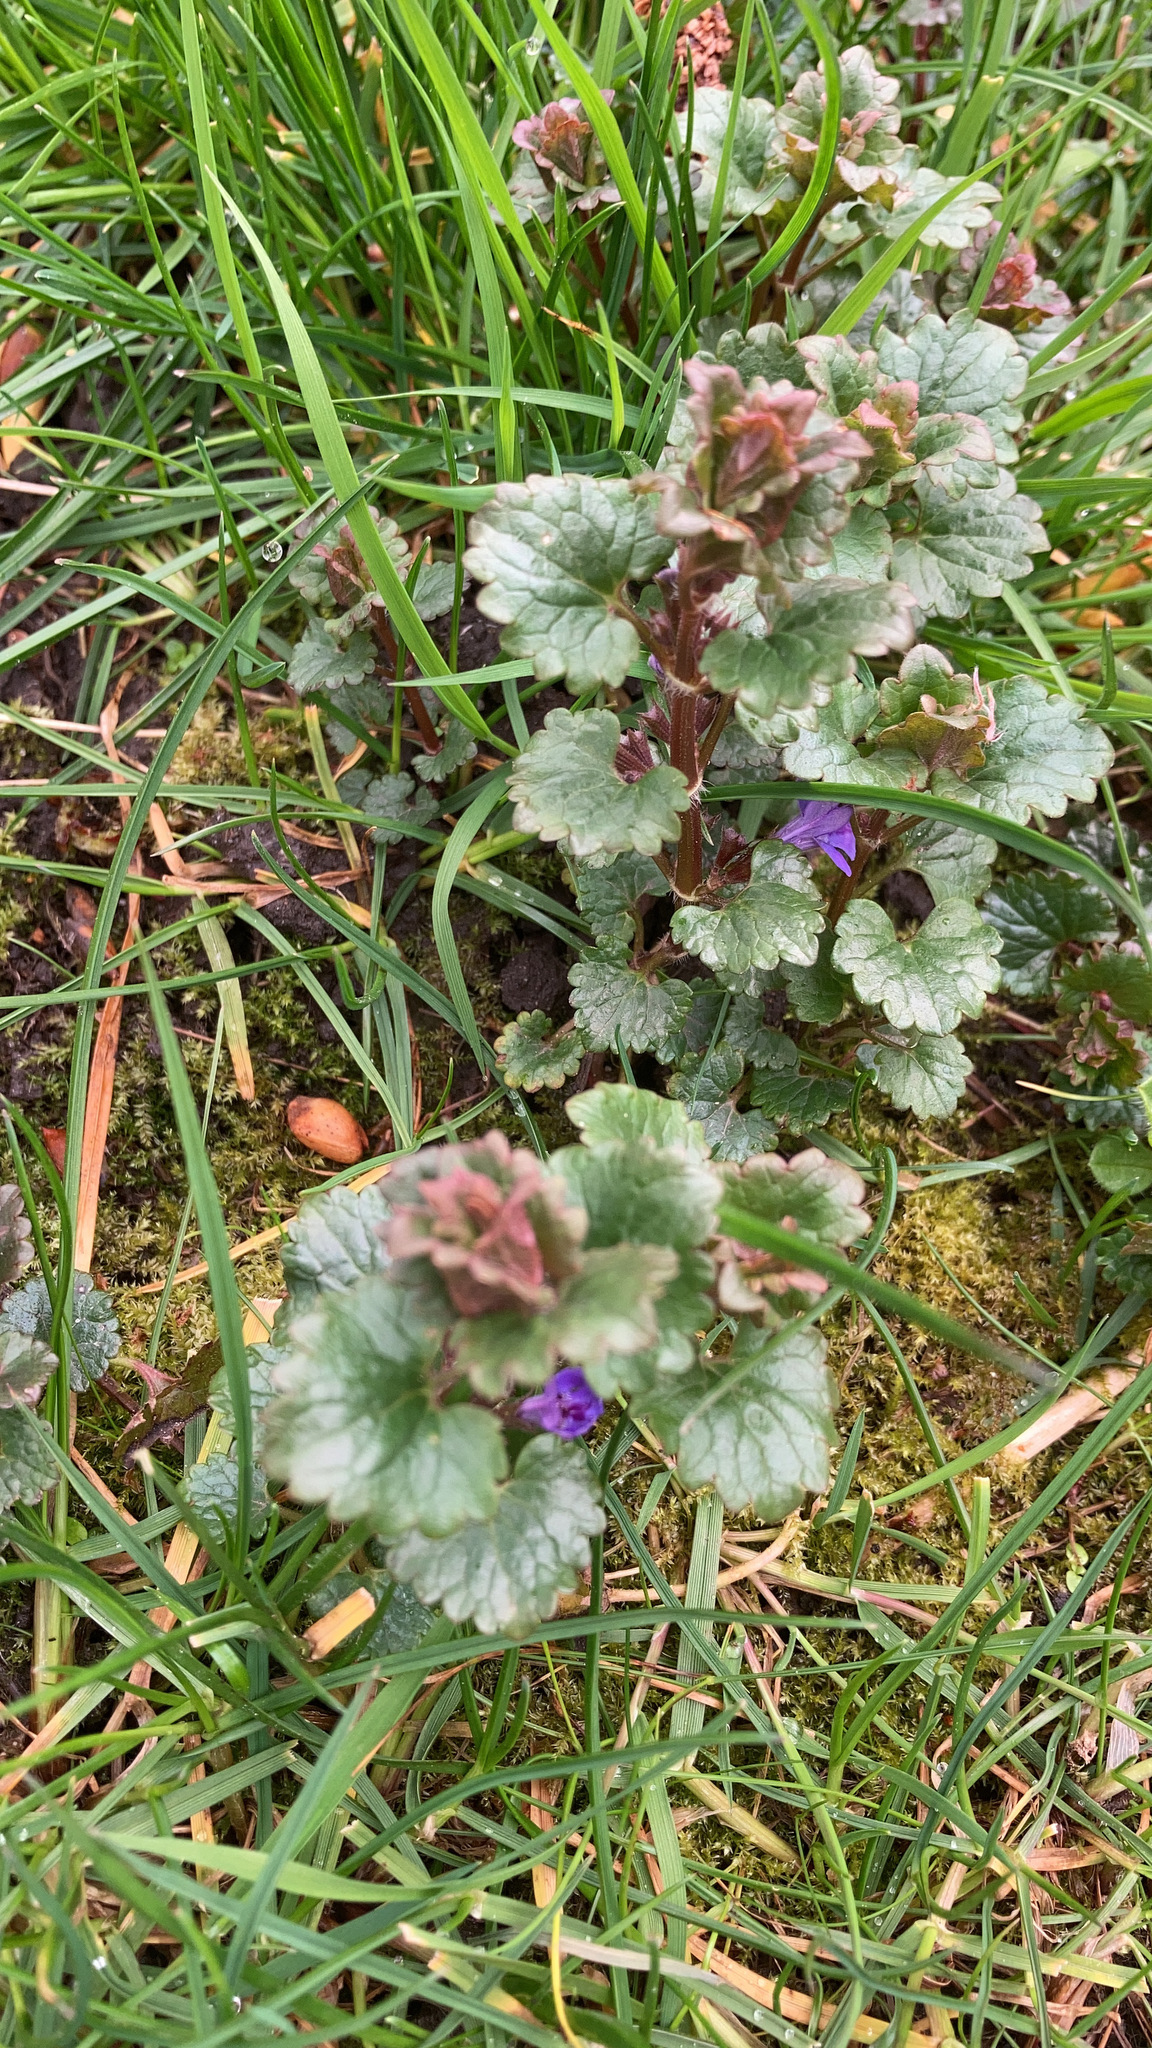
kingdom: Plantae
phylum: Tracheophyta
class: Magnoliopsida
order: Lamiales
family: Lamiaceae
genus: Glechoma
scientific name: Glechoma hederacea
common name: Ground ivy
